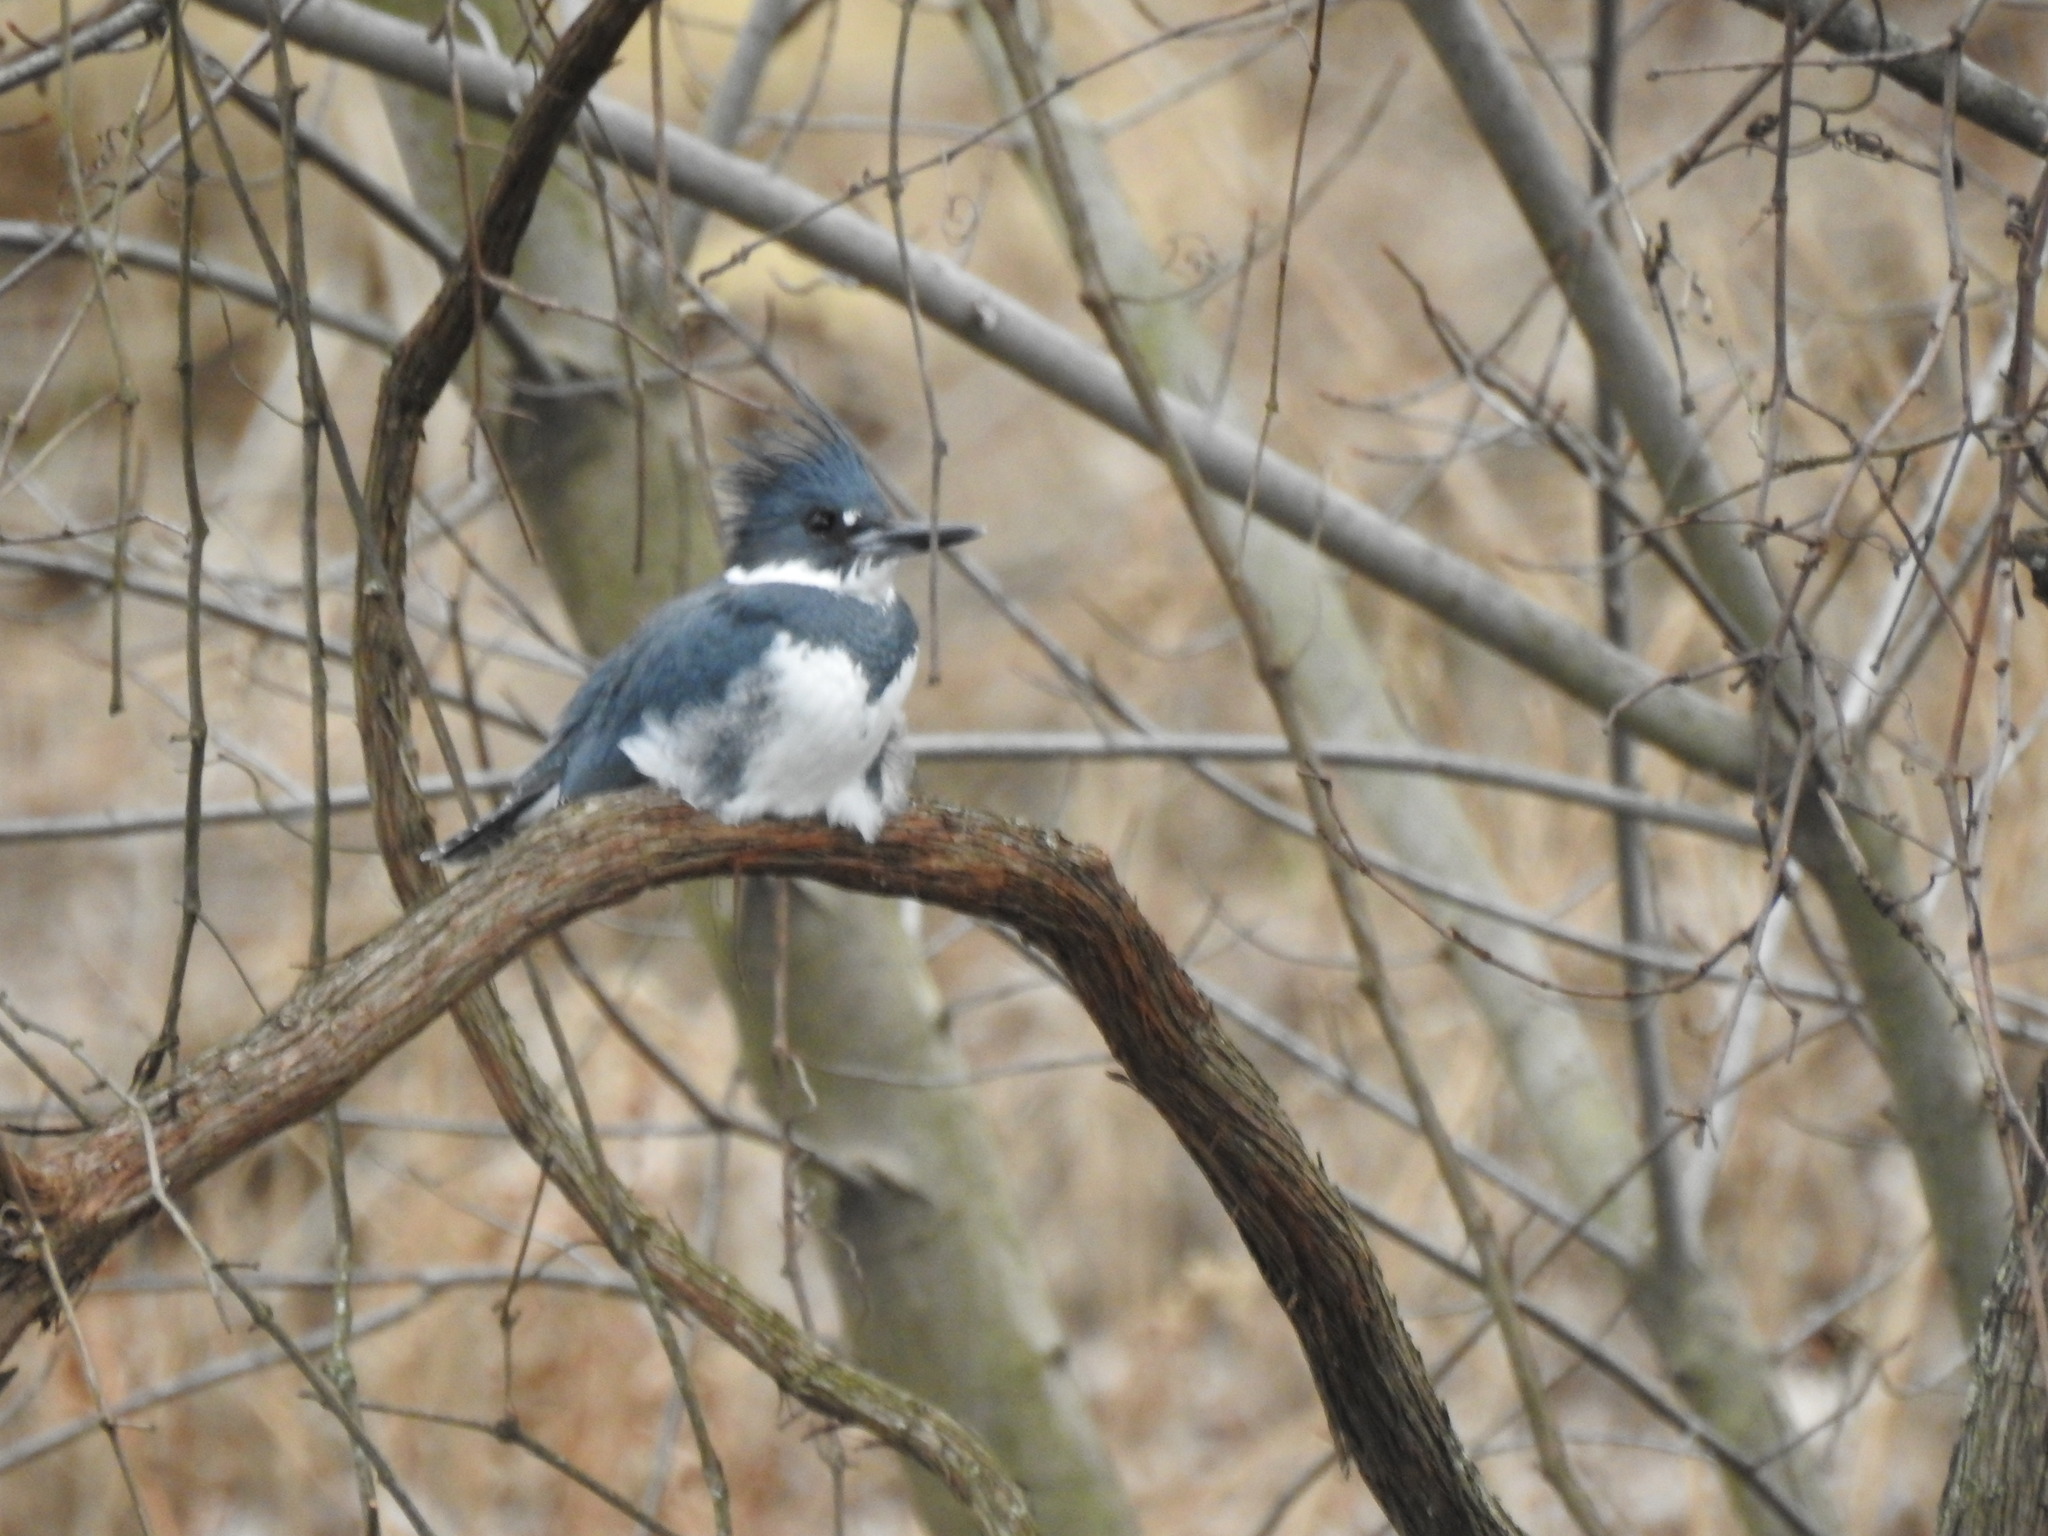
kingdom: Animalia
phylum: Chordata
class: Aves
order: Coraciiformes
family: Alcedinidae
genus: Megaceryle
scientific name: Megaceryle alcyon
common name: Belted kingfisher
